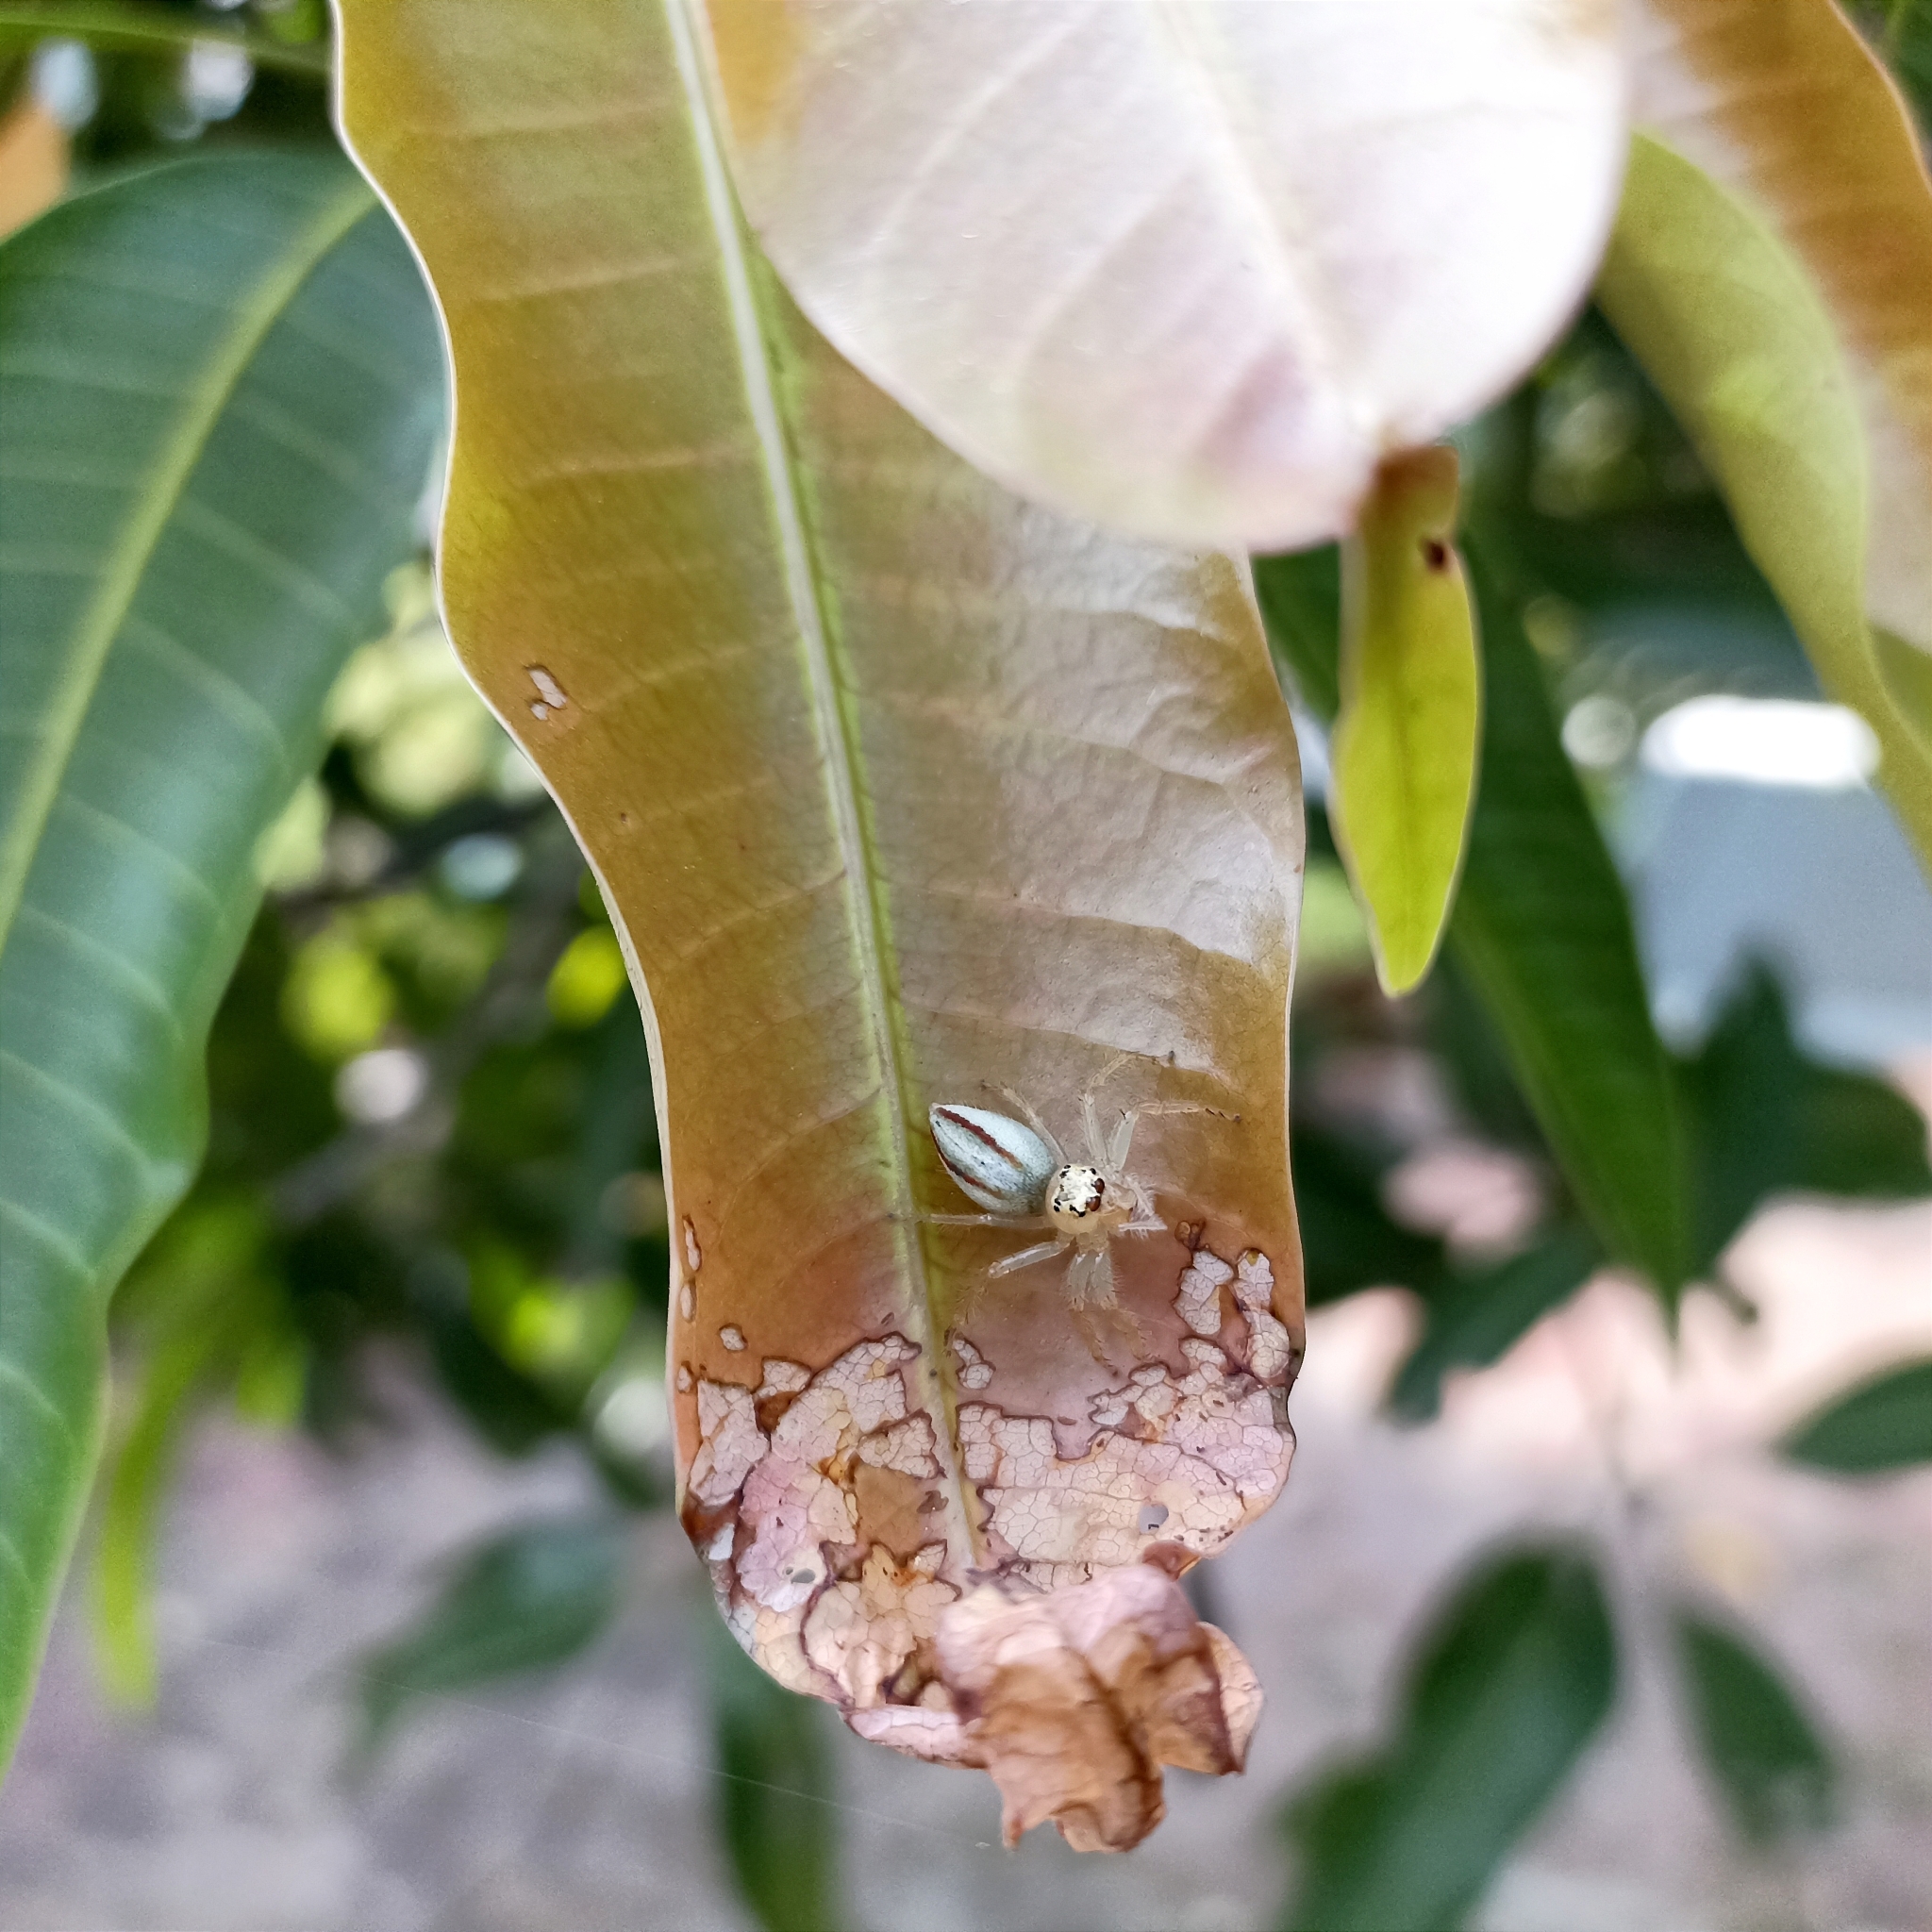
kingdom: Animalia
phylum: Arthropoda
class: Arachnida
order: Araneae
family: Salticidae
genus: Telamonia
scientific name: Telamonia dimidiata
